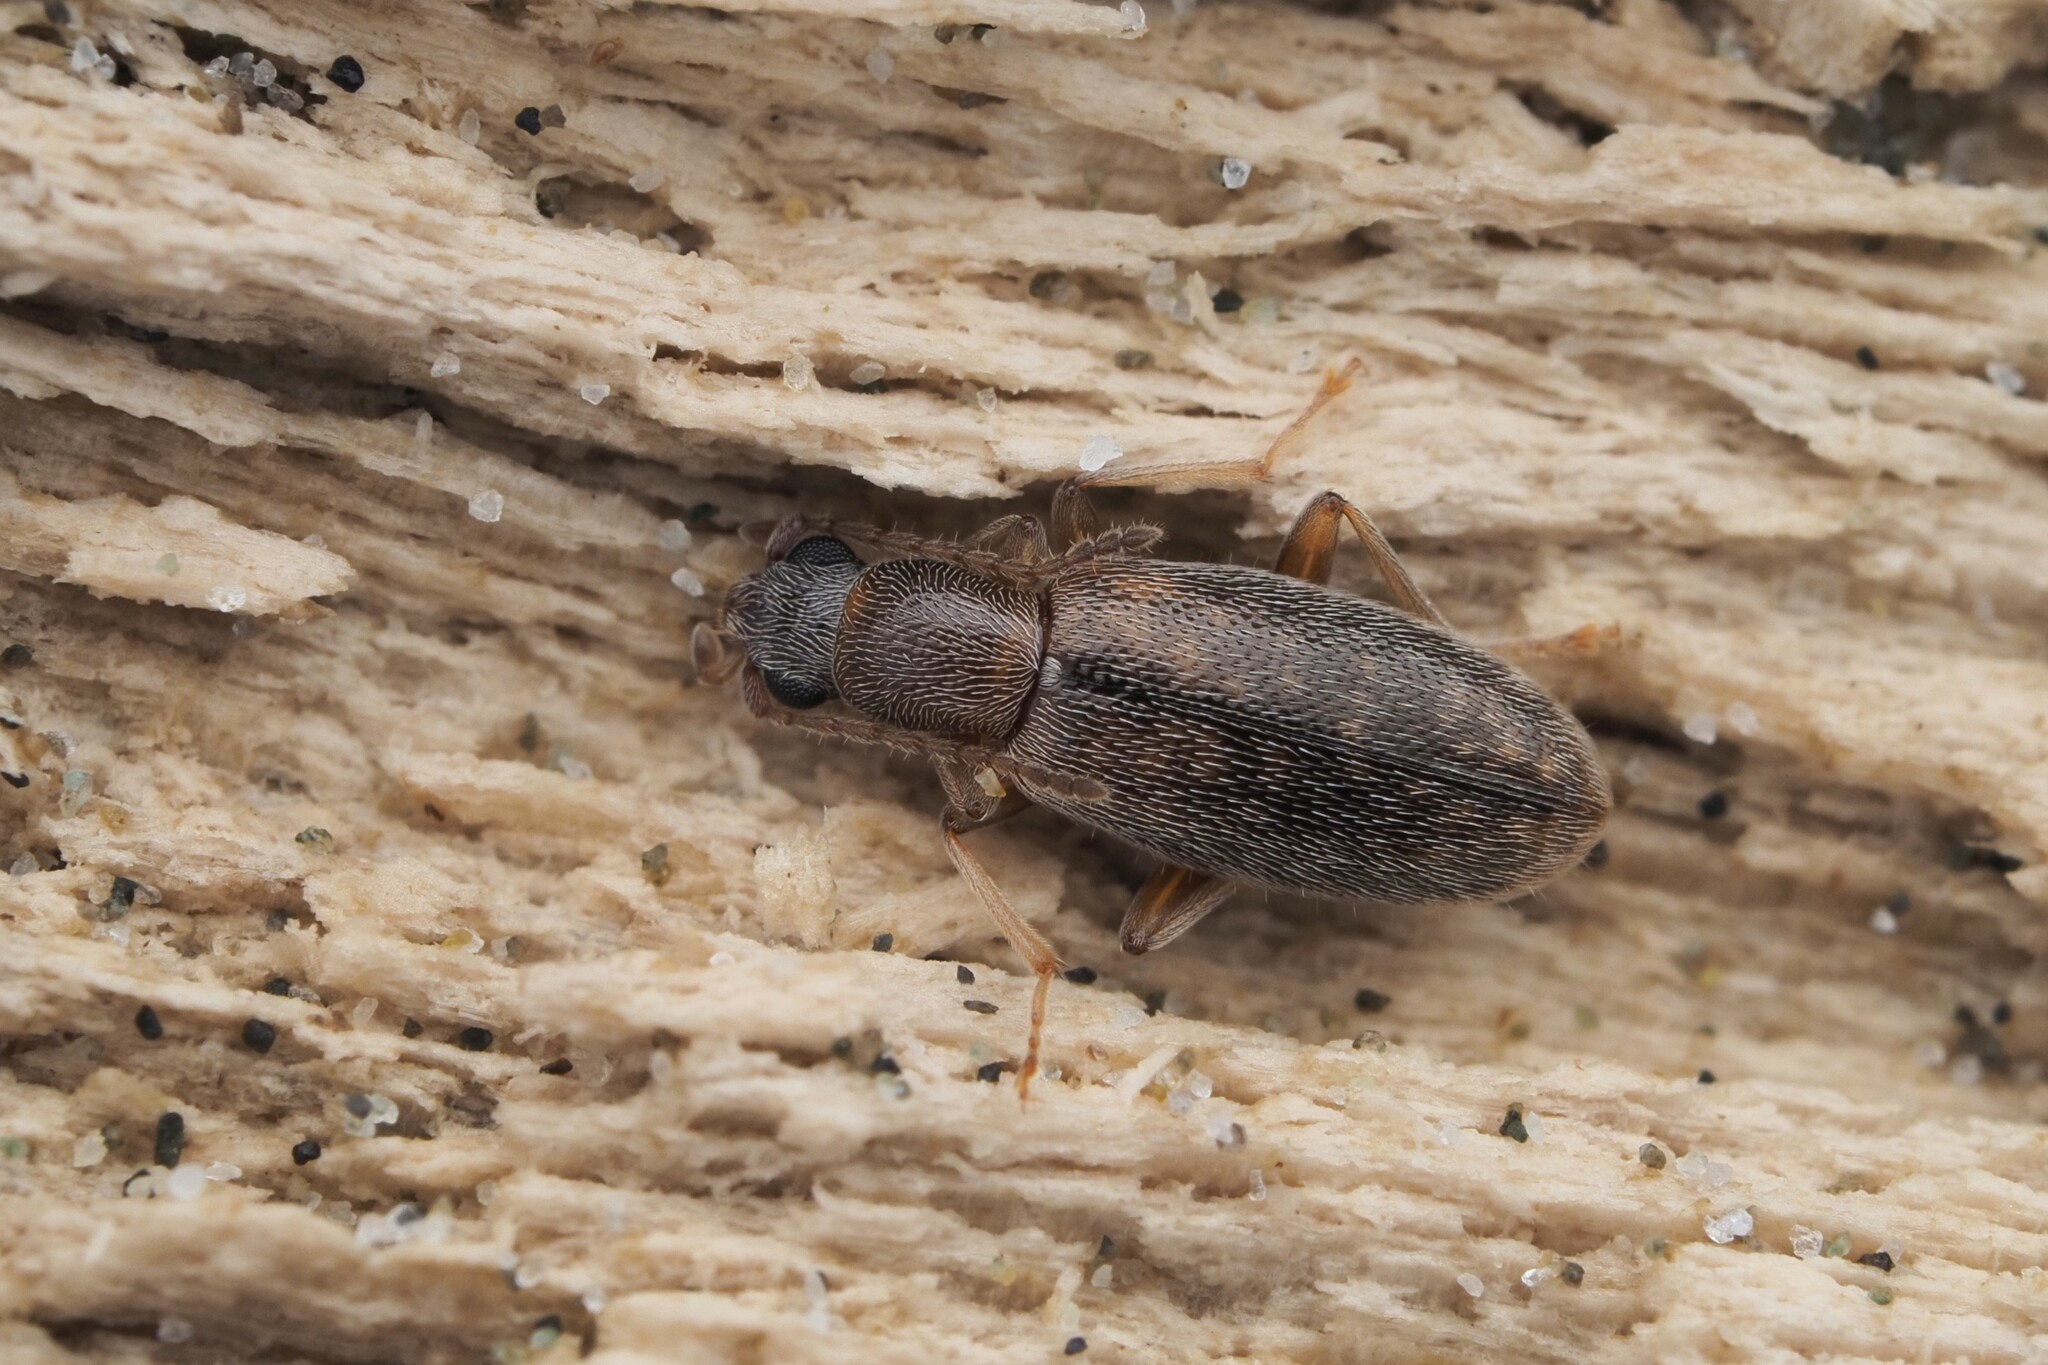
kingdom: Animalia
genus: Lagrioda
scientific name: Lagrioda brounii
